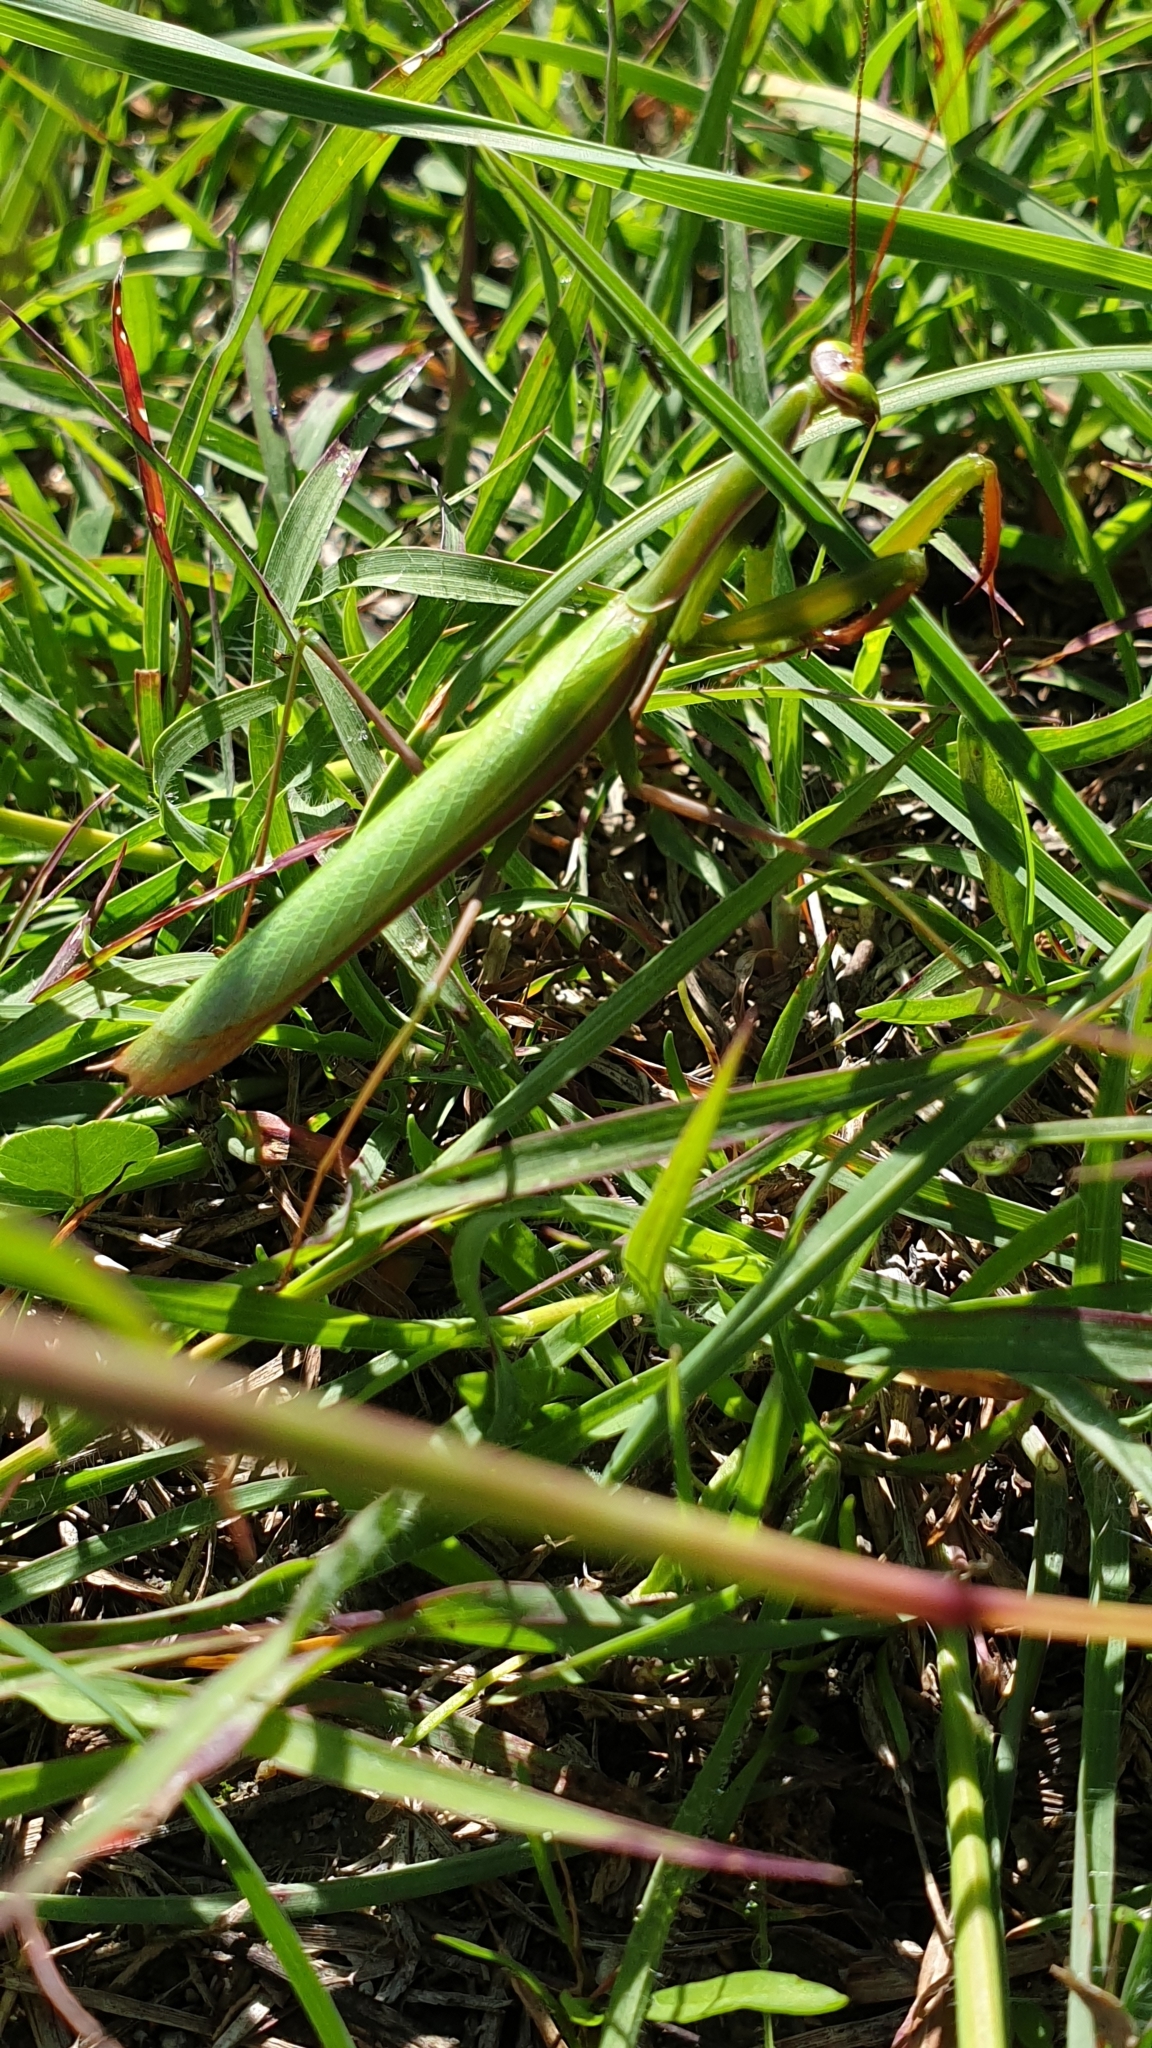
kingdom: Animalia
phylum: Arthropoda
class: Insecta
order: Mantodea
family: Mantidae
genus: Mantis
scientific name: Mantis religiosa
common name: Praying mantis
